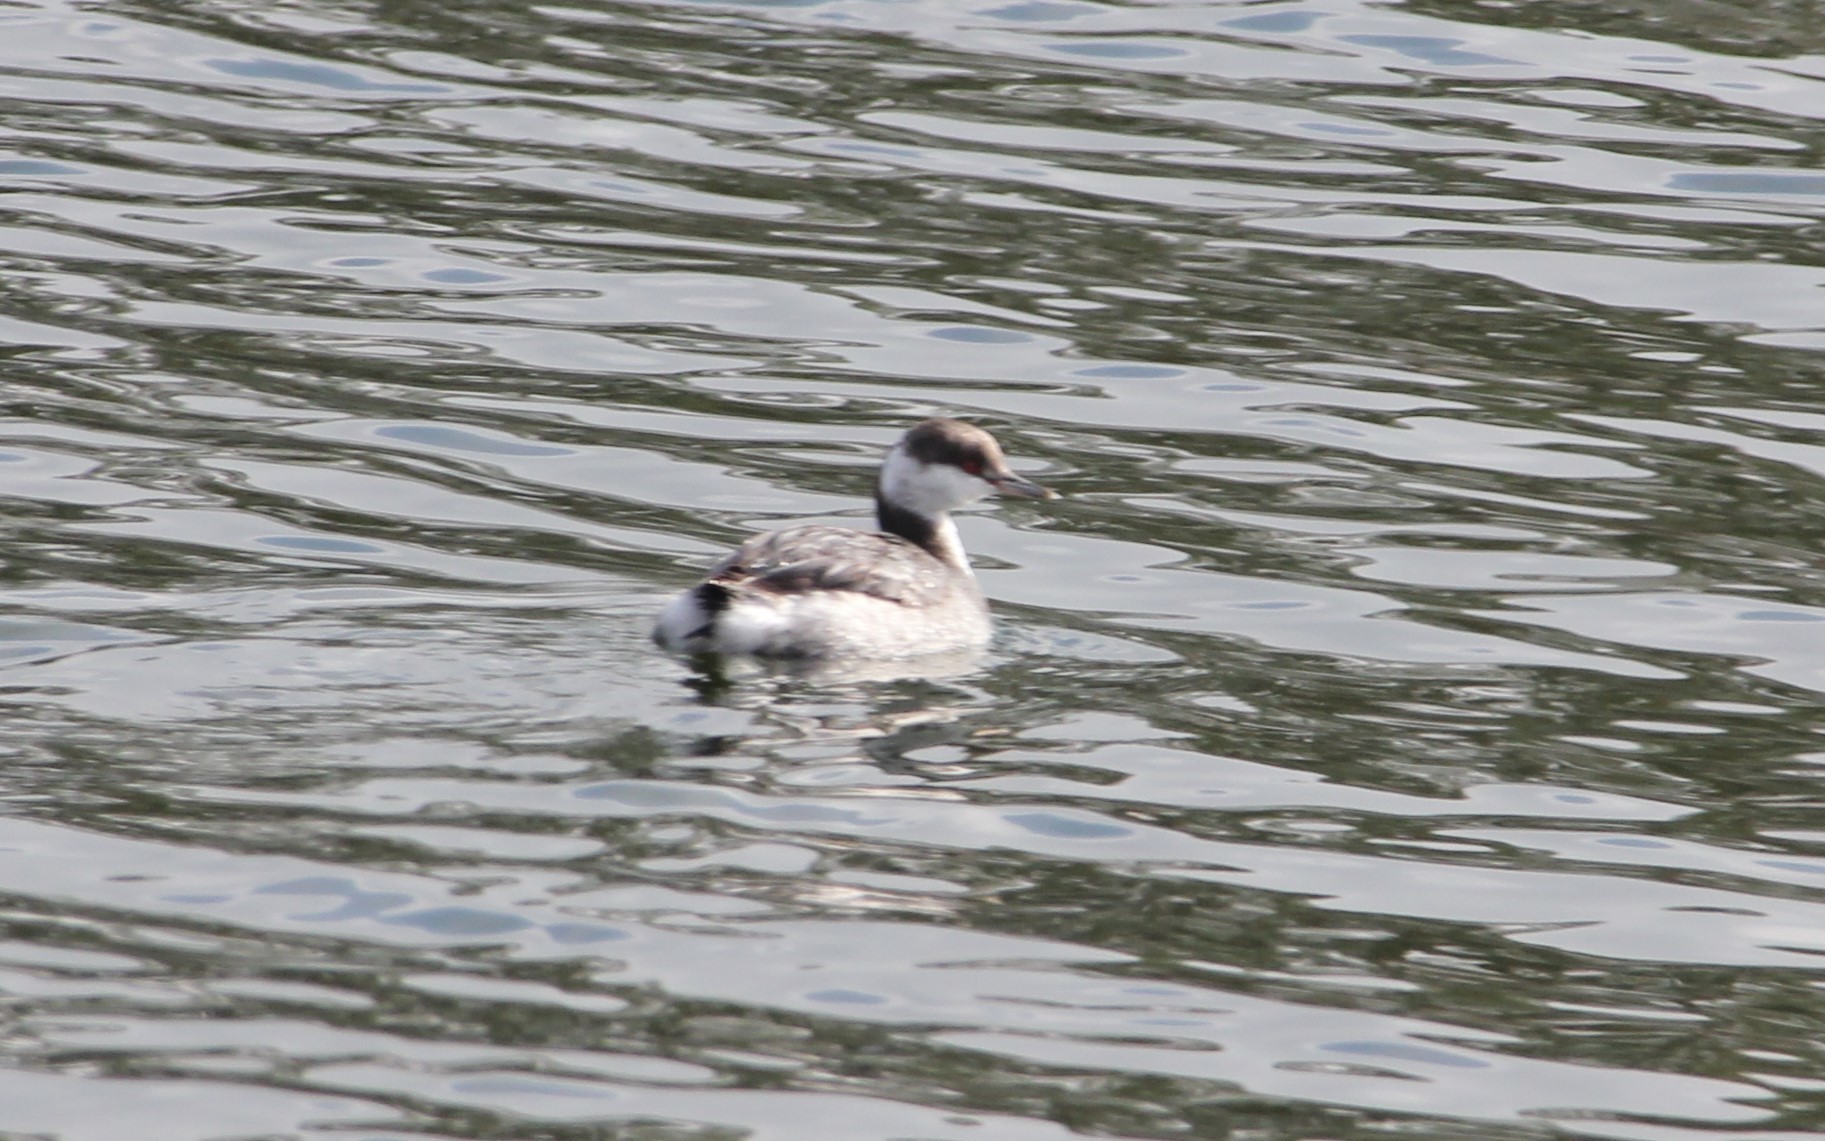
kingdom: Animalia
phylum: Chordata
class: Aves
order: Podicipediformes
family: Podicipedidae
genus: Podiceps
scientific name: Podiceps auritus
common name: Horned grebe
